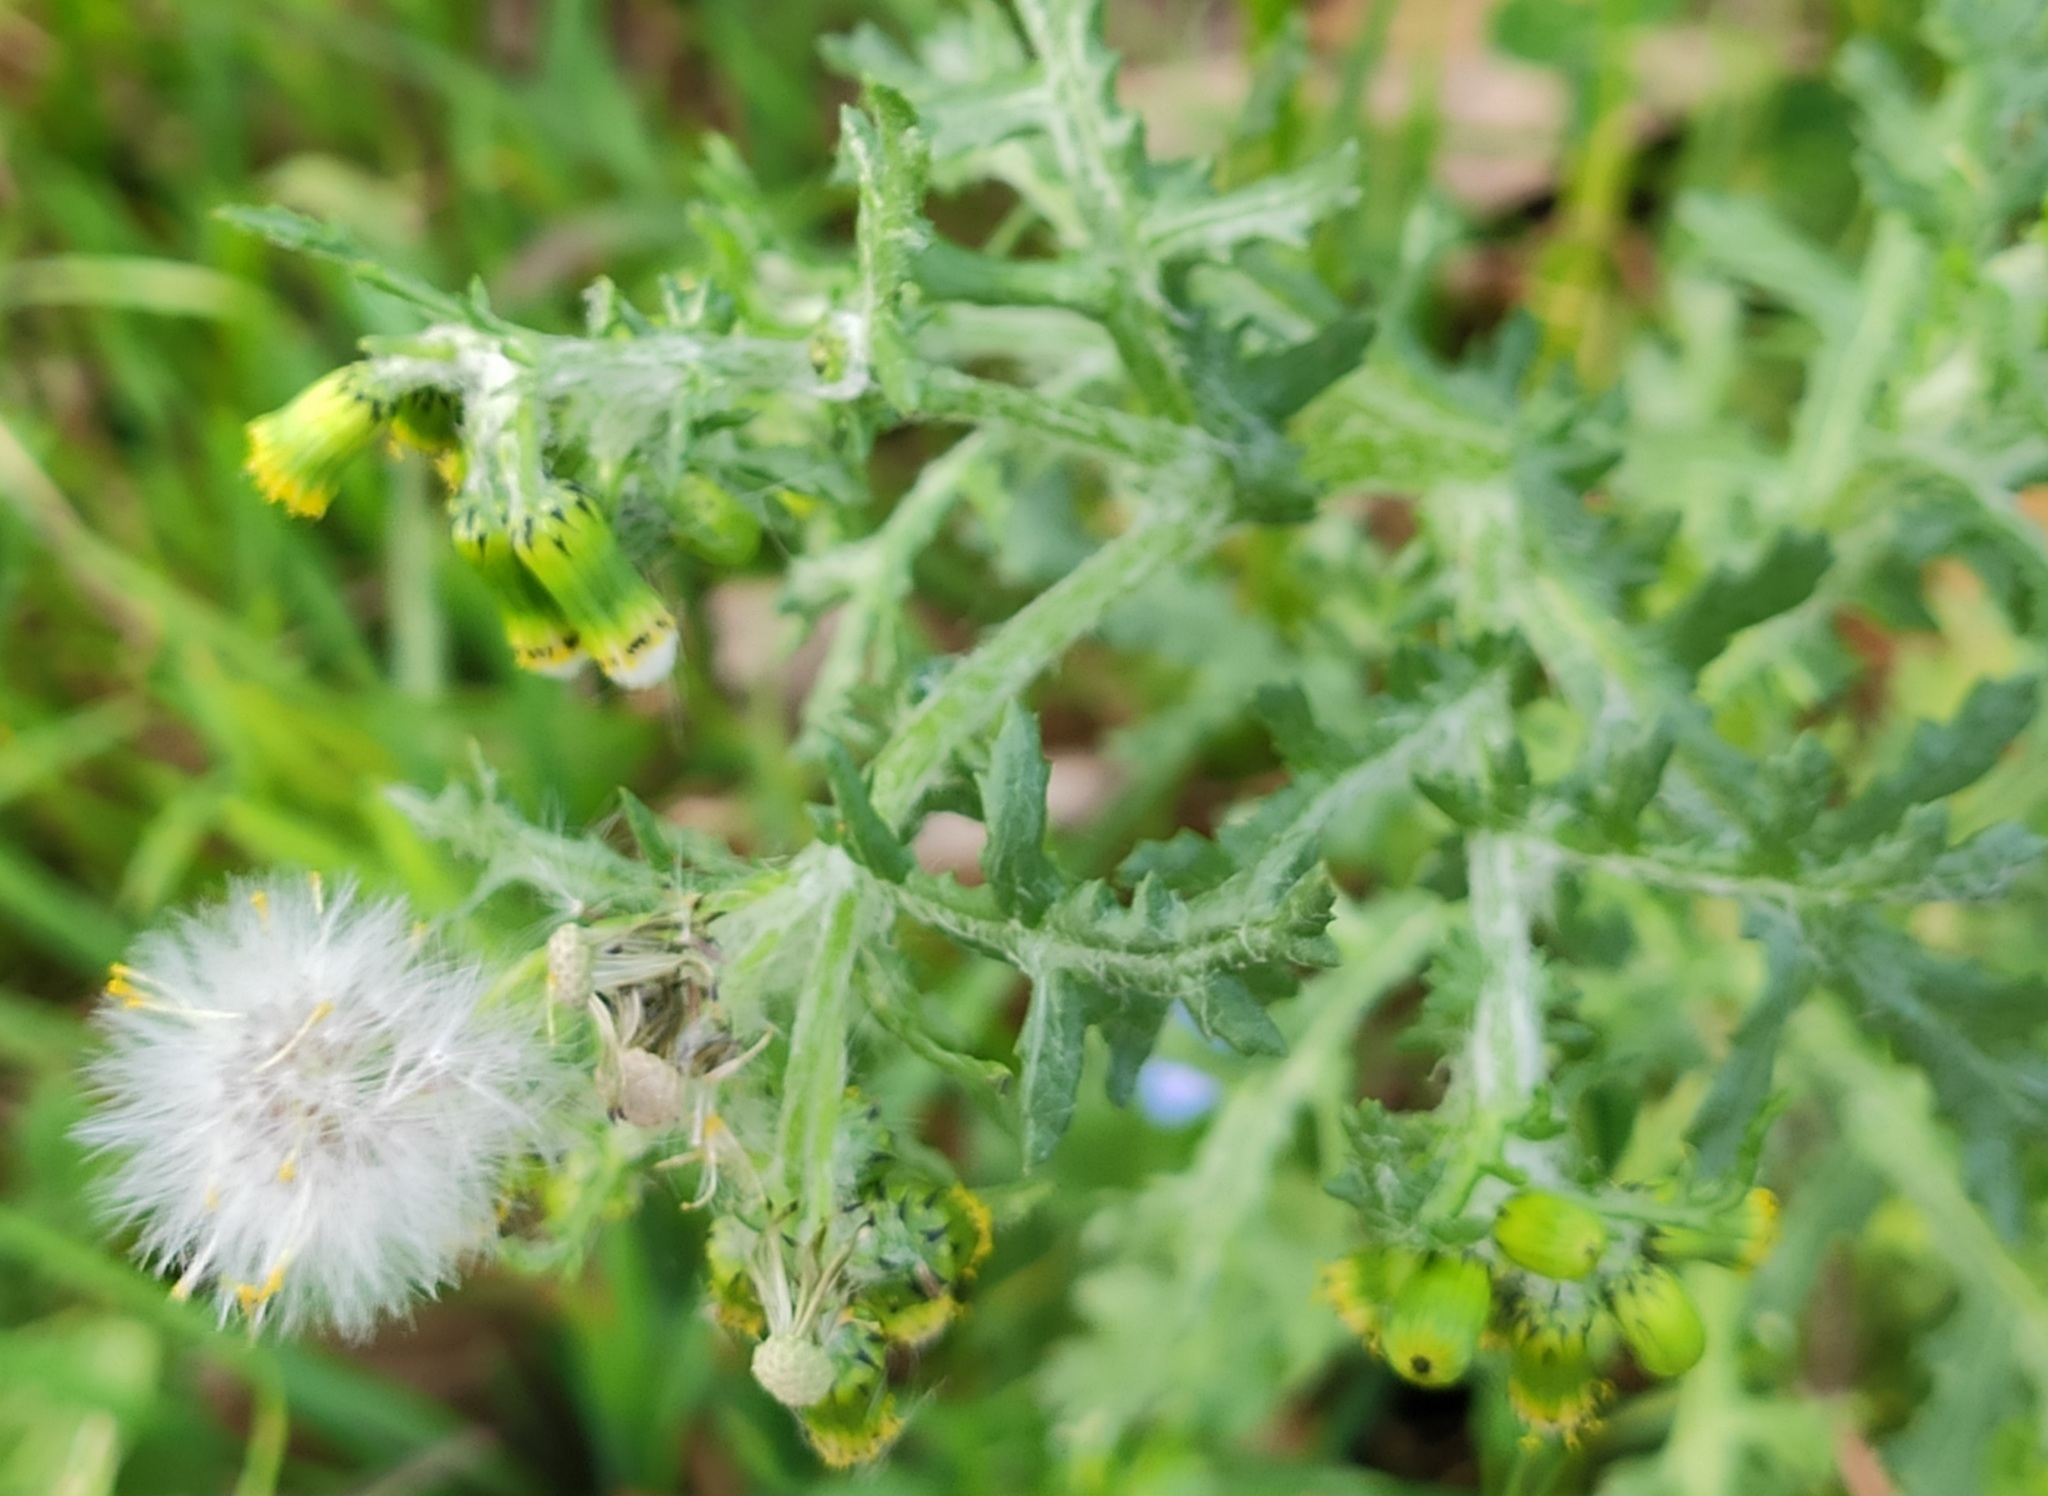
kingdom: Plantae
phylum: Tracheophyta
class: Magnoliopsida
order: Asterales
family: Asteraceae
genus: Senecio
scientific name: Senecio vulgaris
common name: Old-man-in-the-spring
